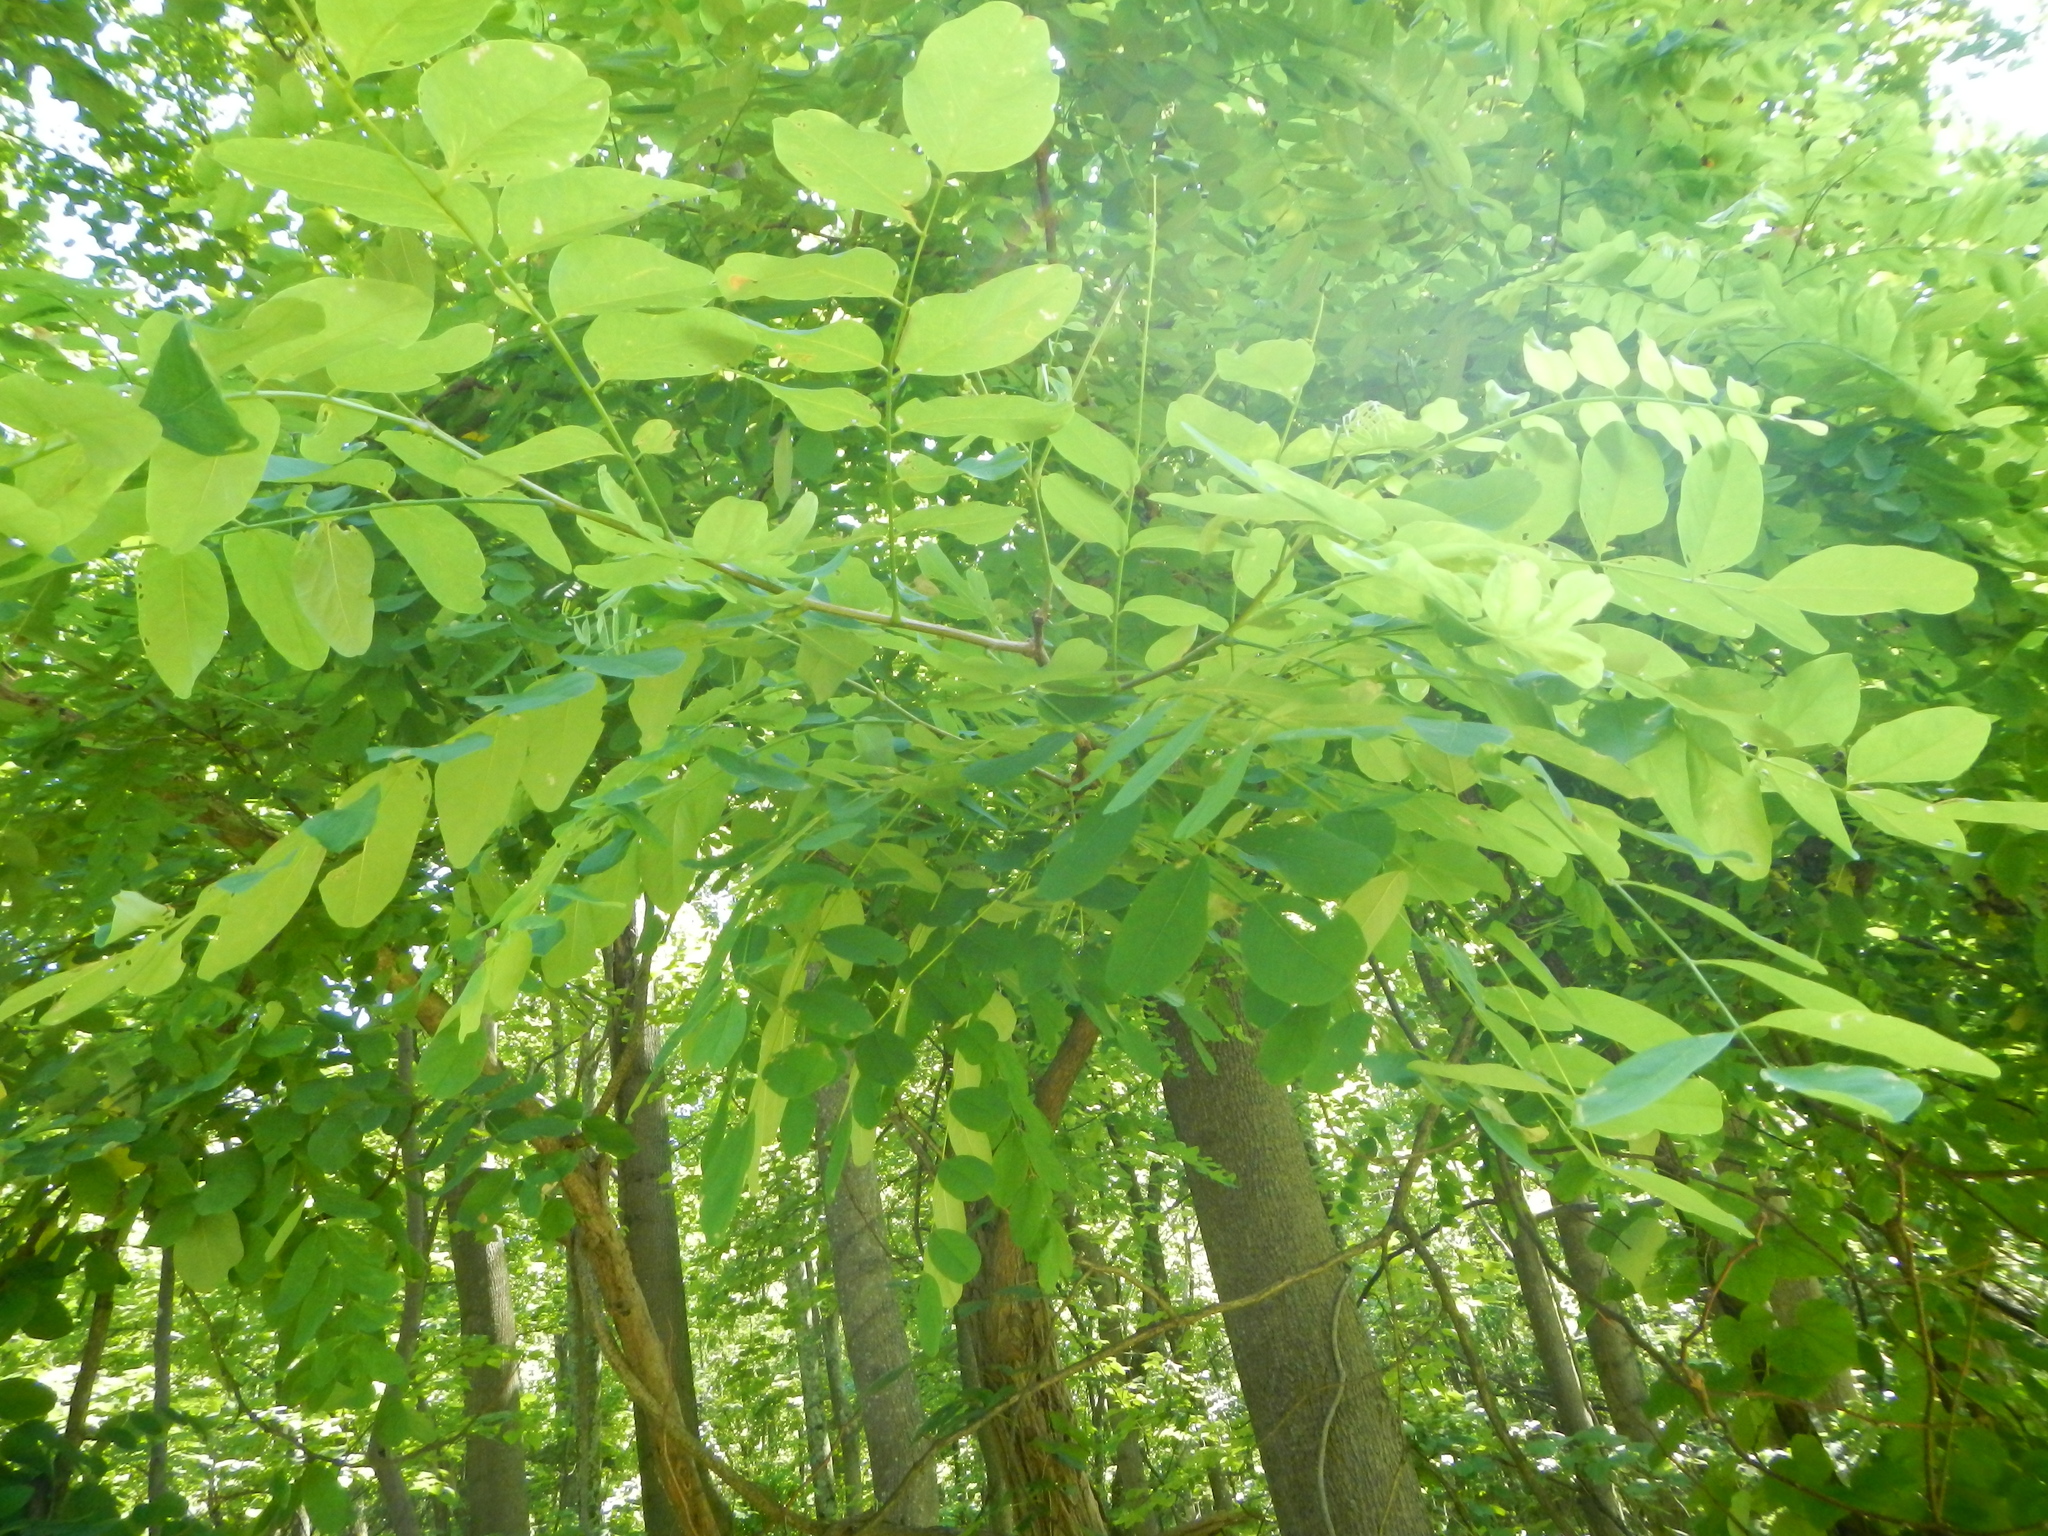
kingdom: Plantae
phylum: Tracheophyta
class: Magnoliopsida
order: Fabales
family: Fabaceae
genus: Robinia
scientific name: Robinia pseudoacacia
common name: Black locust
